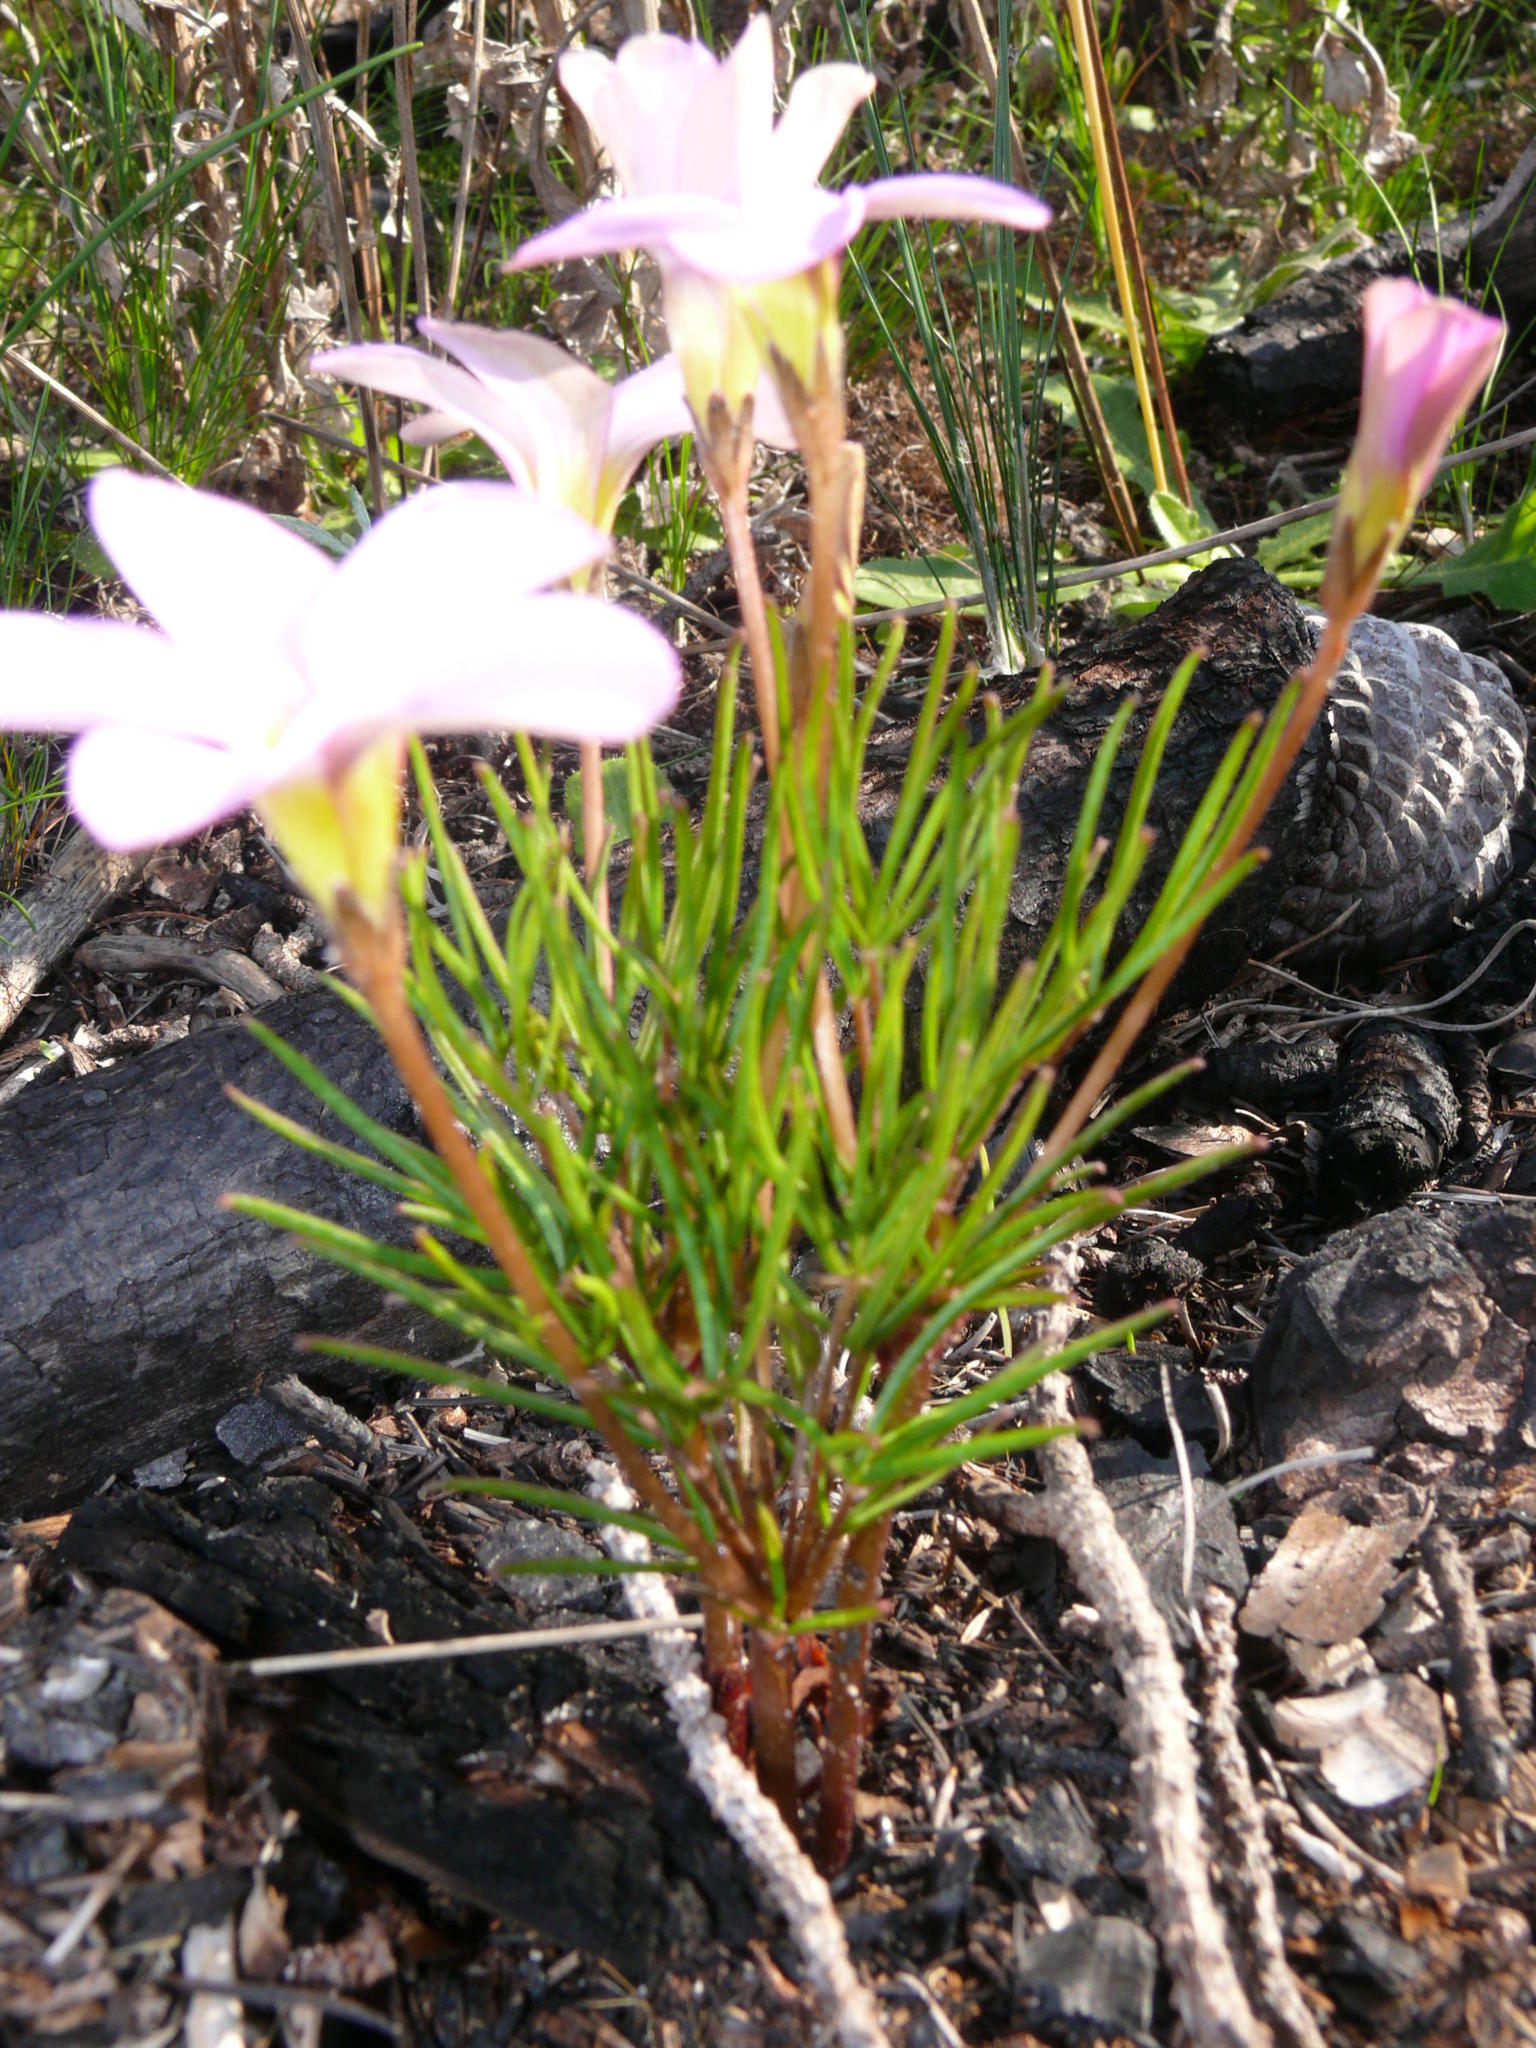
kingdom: Plantae
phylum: Tracheophyta
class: Magnoliopsida
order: Oxalidales
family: Oxalidaceae
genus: Oxalis
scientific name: Oxalis polyphylla
